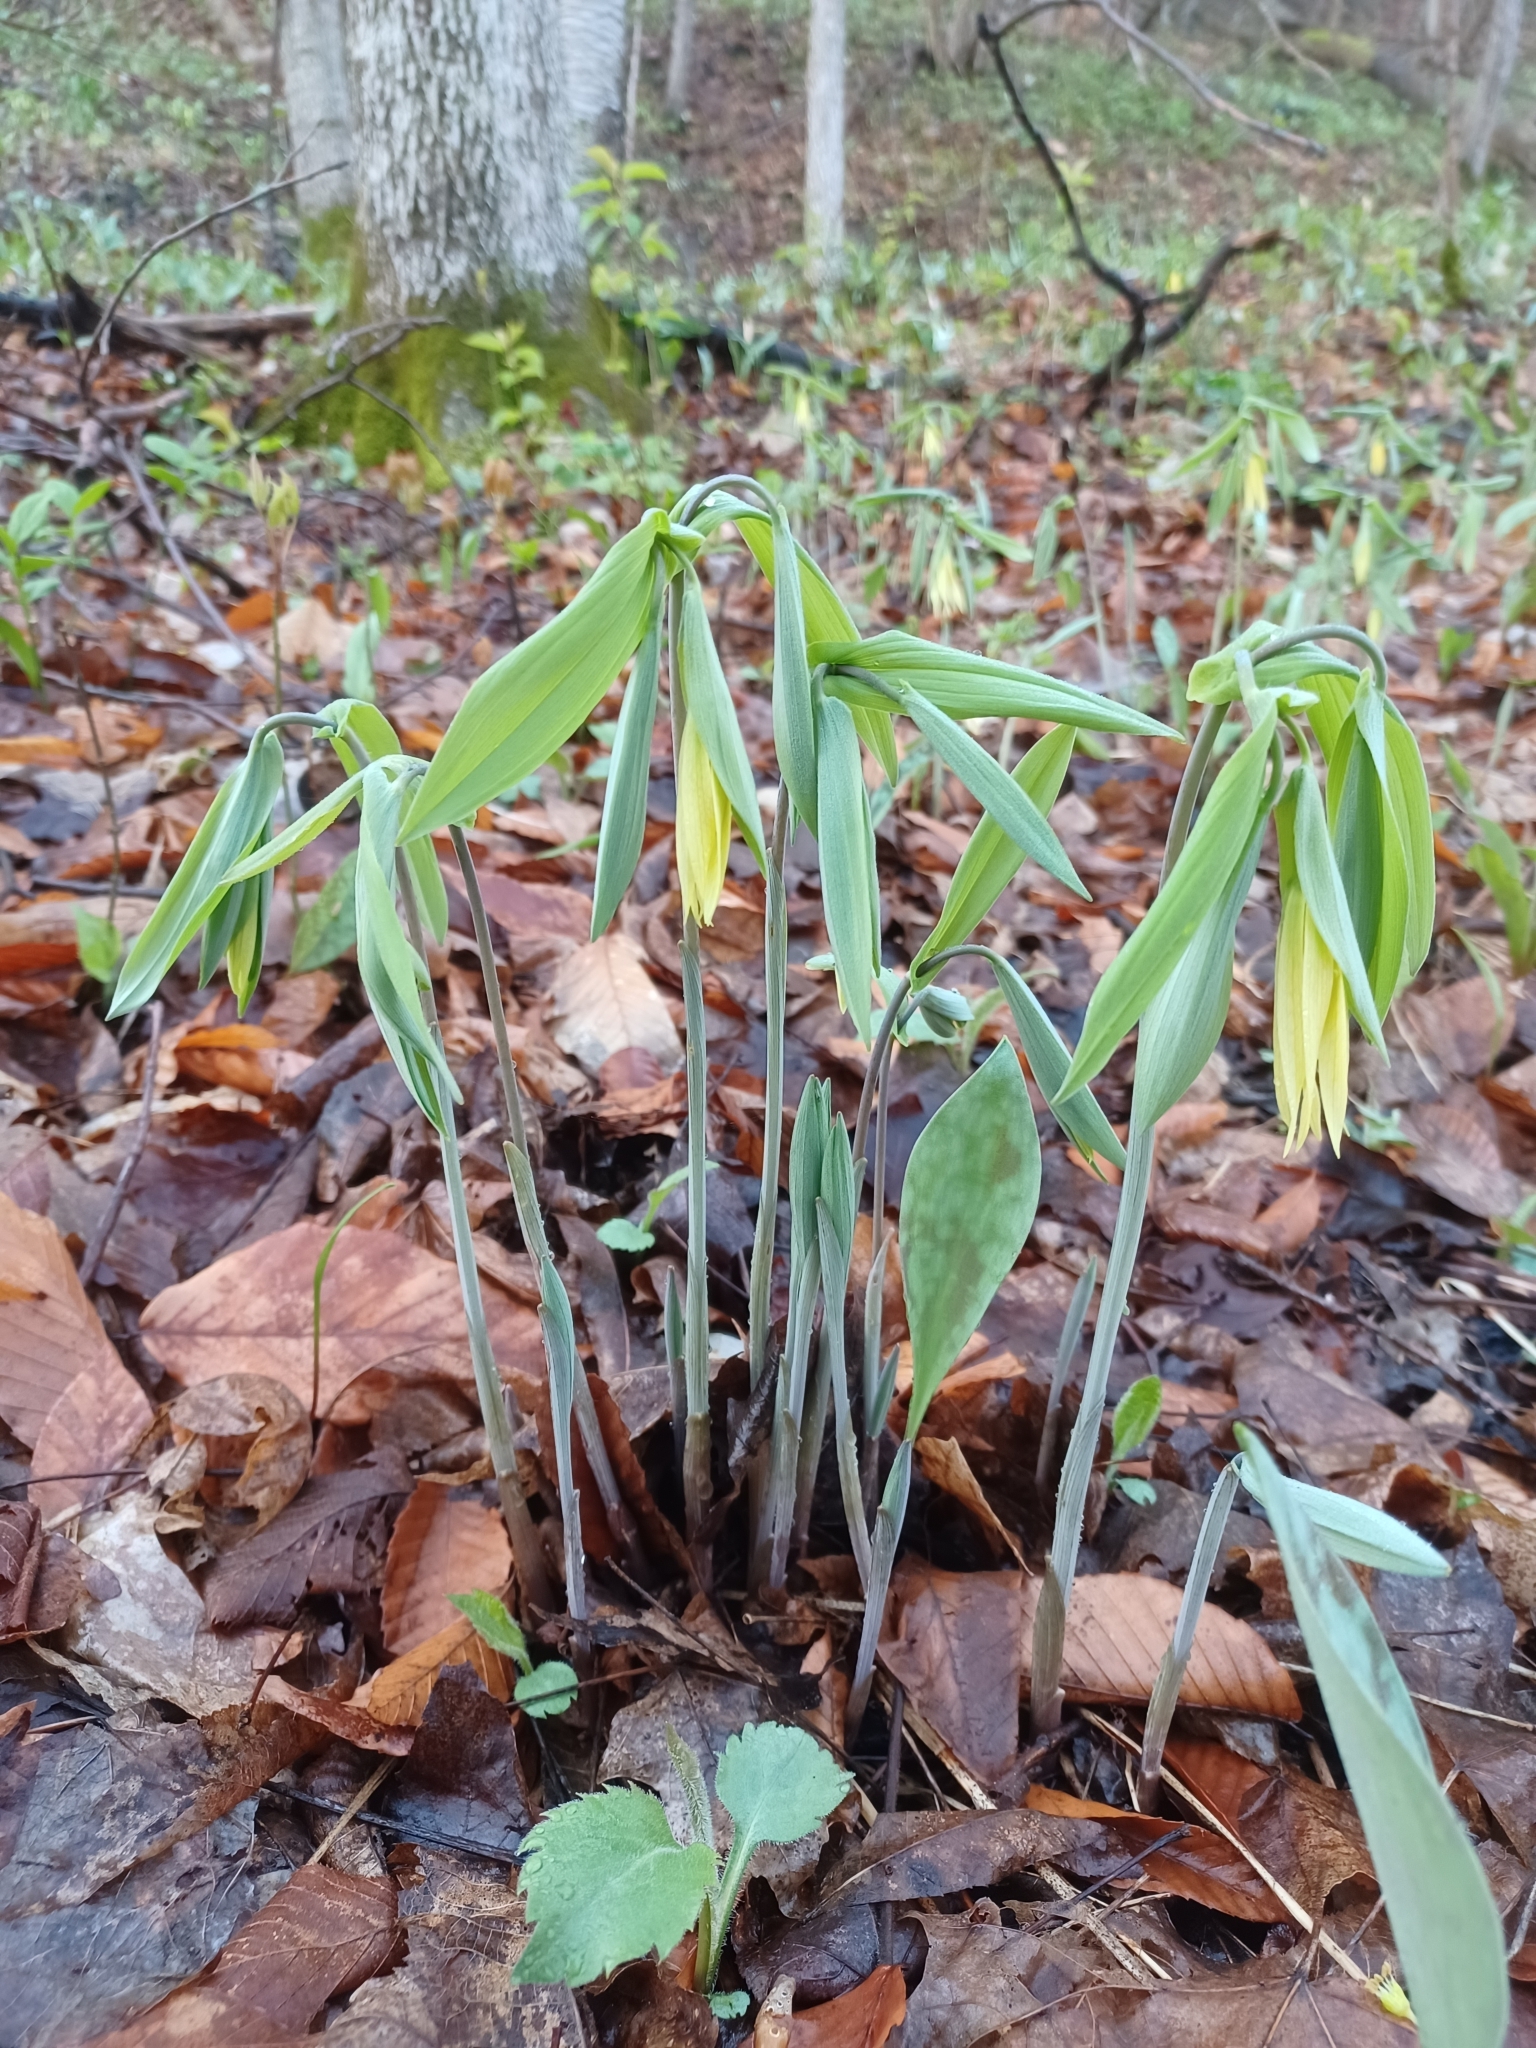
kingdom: Plantae
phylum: Tracheophyta
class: Liliopsida
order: Liliales
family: Colchicaceae
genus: Uvularia
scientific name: Uvularia grandiflora
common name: Bellwort
